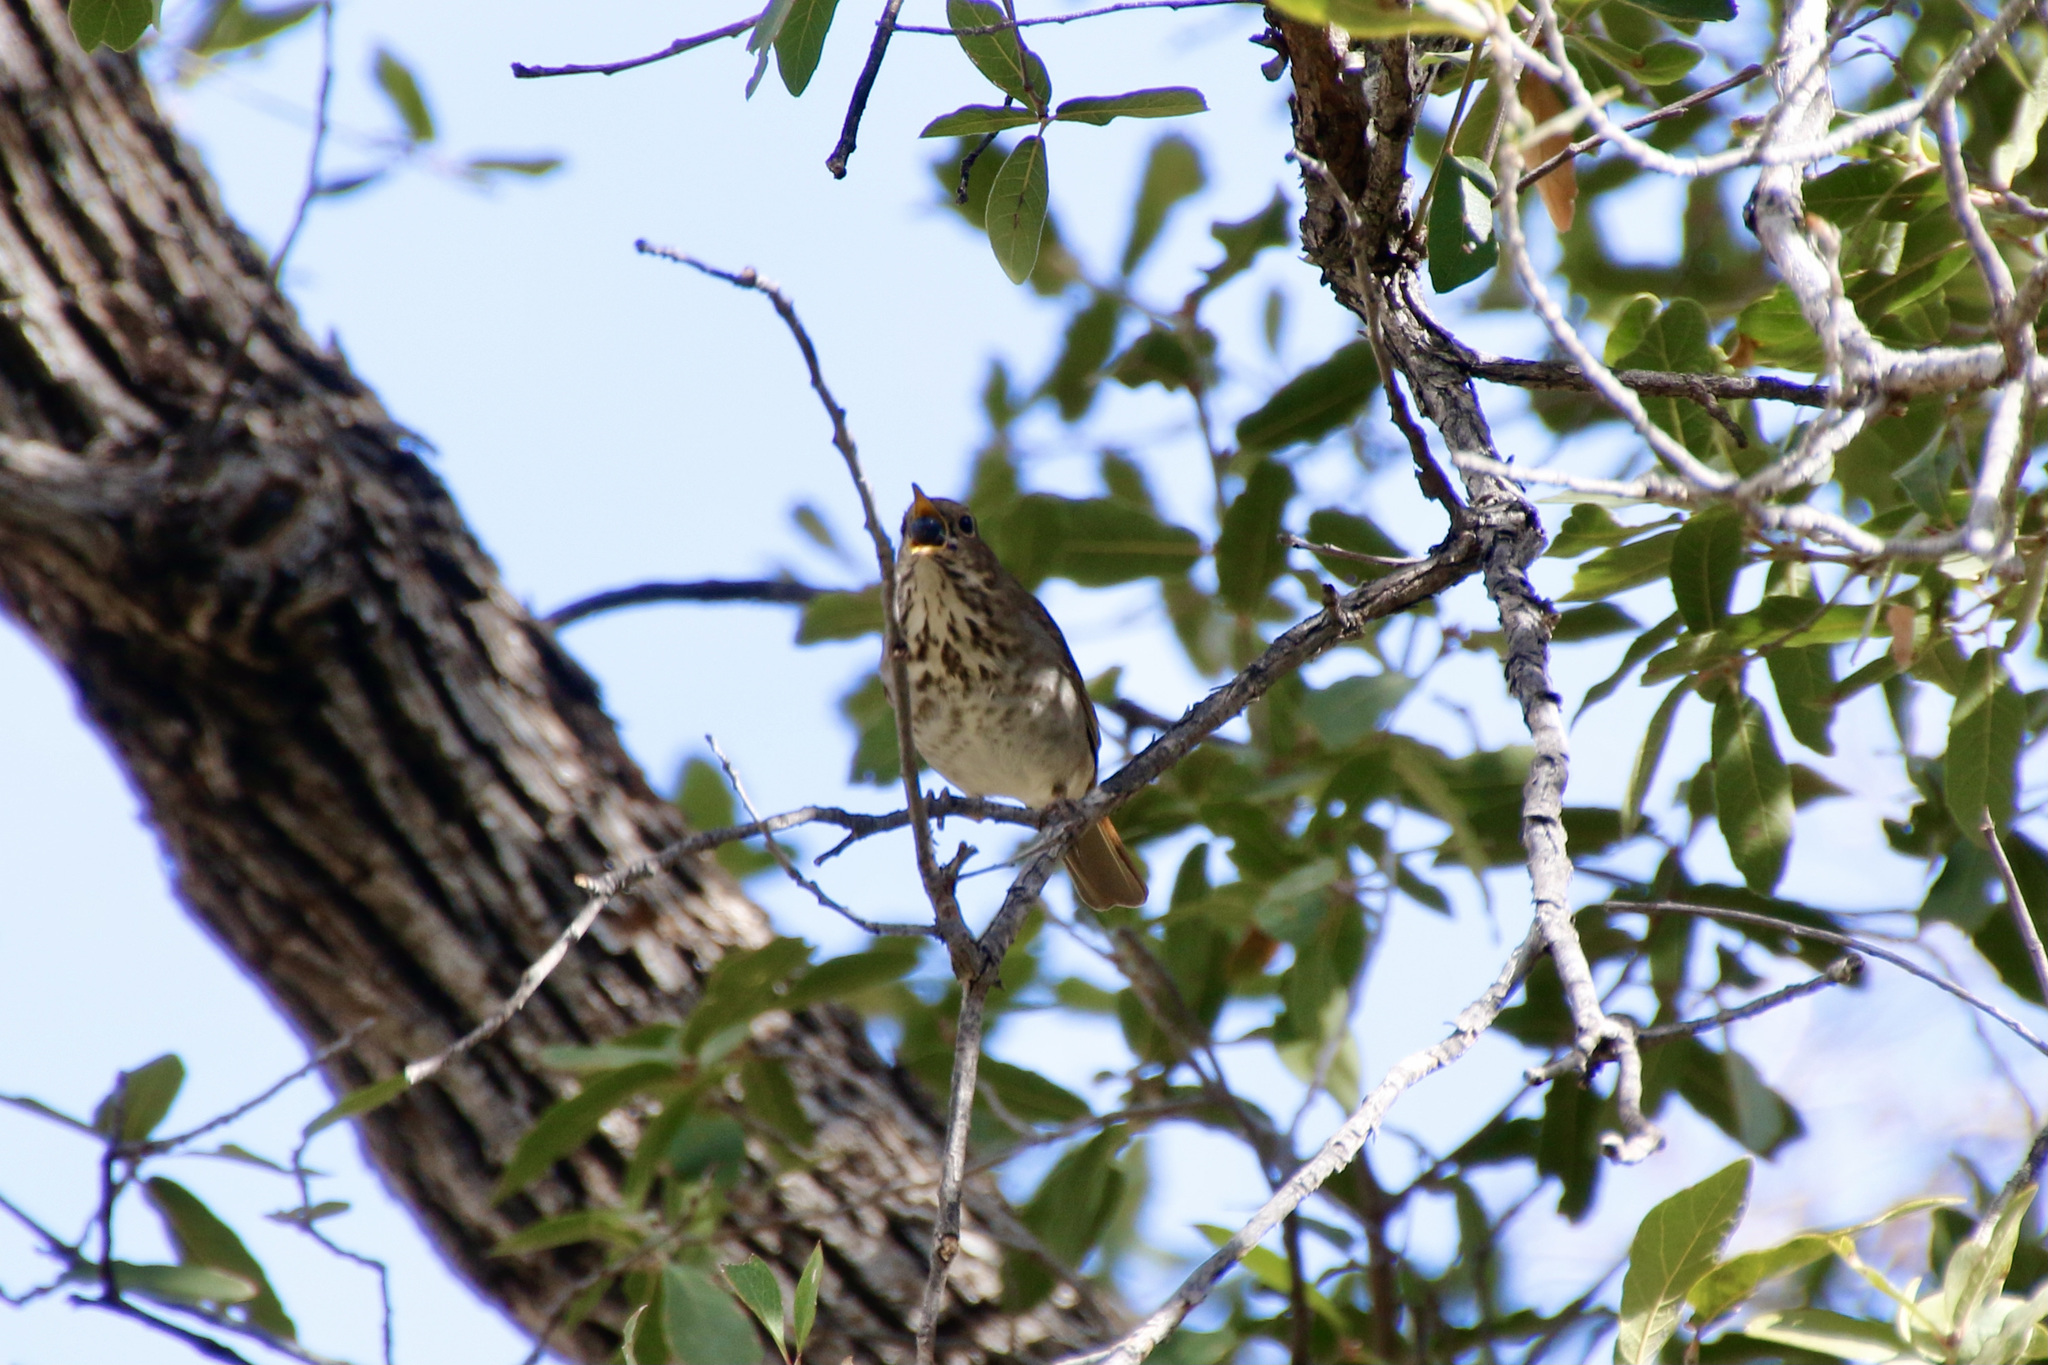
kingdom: Animalia
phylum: Chordata
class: Aves
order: Passeriformes
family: Turdidae
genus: Catharus
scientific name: Catharus guttatus
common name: Hermit thrush
